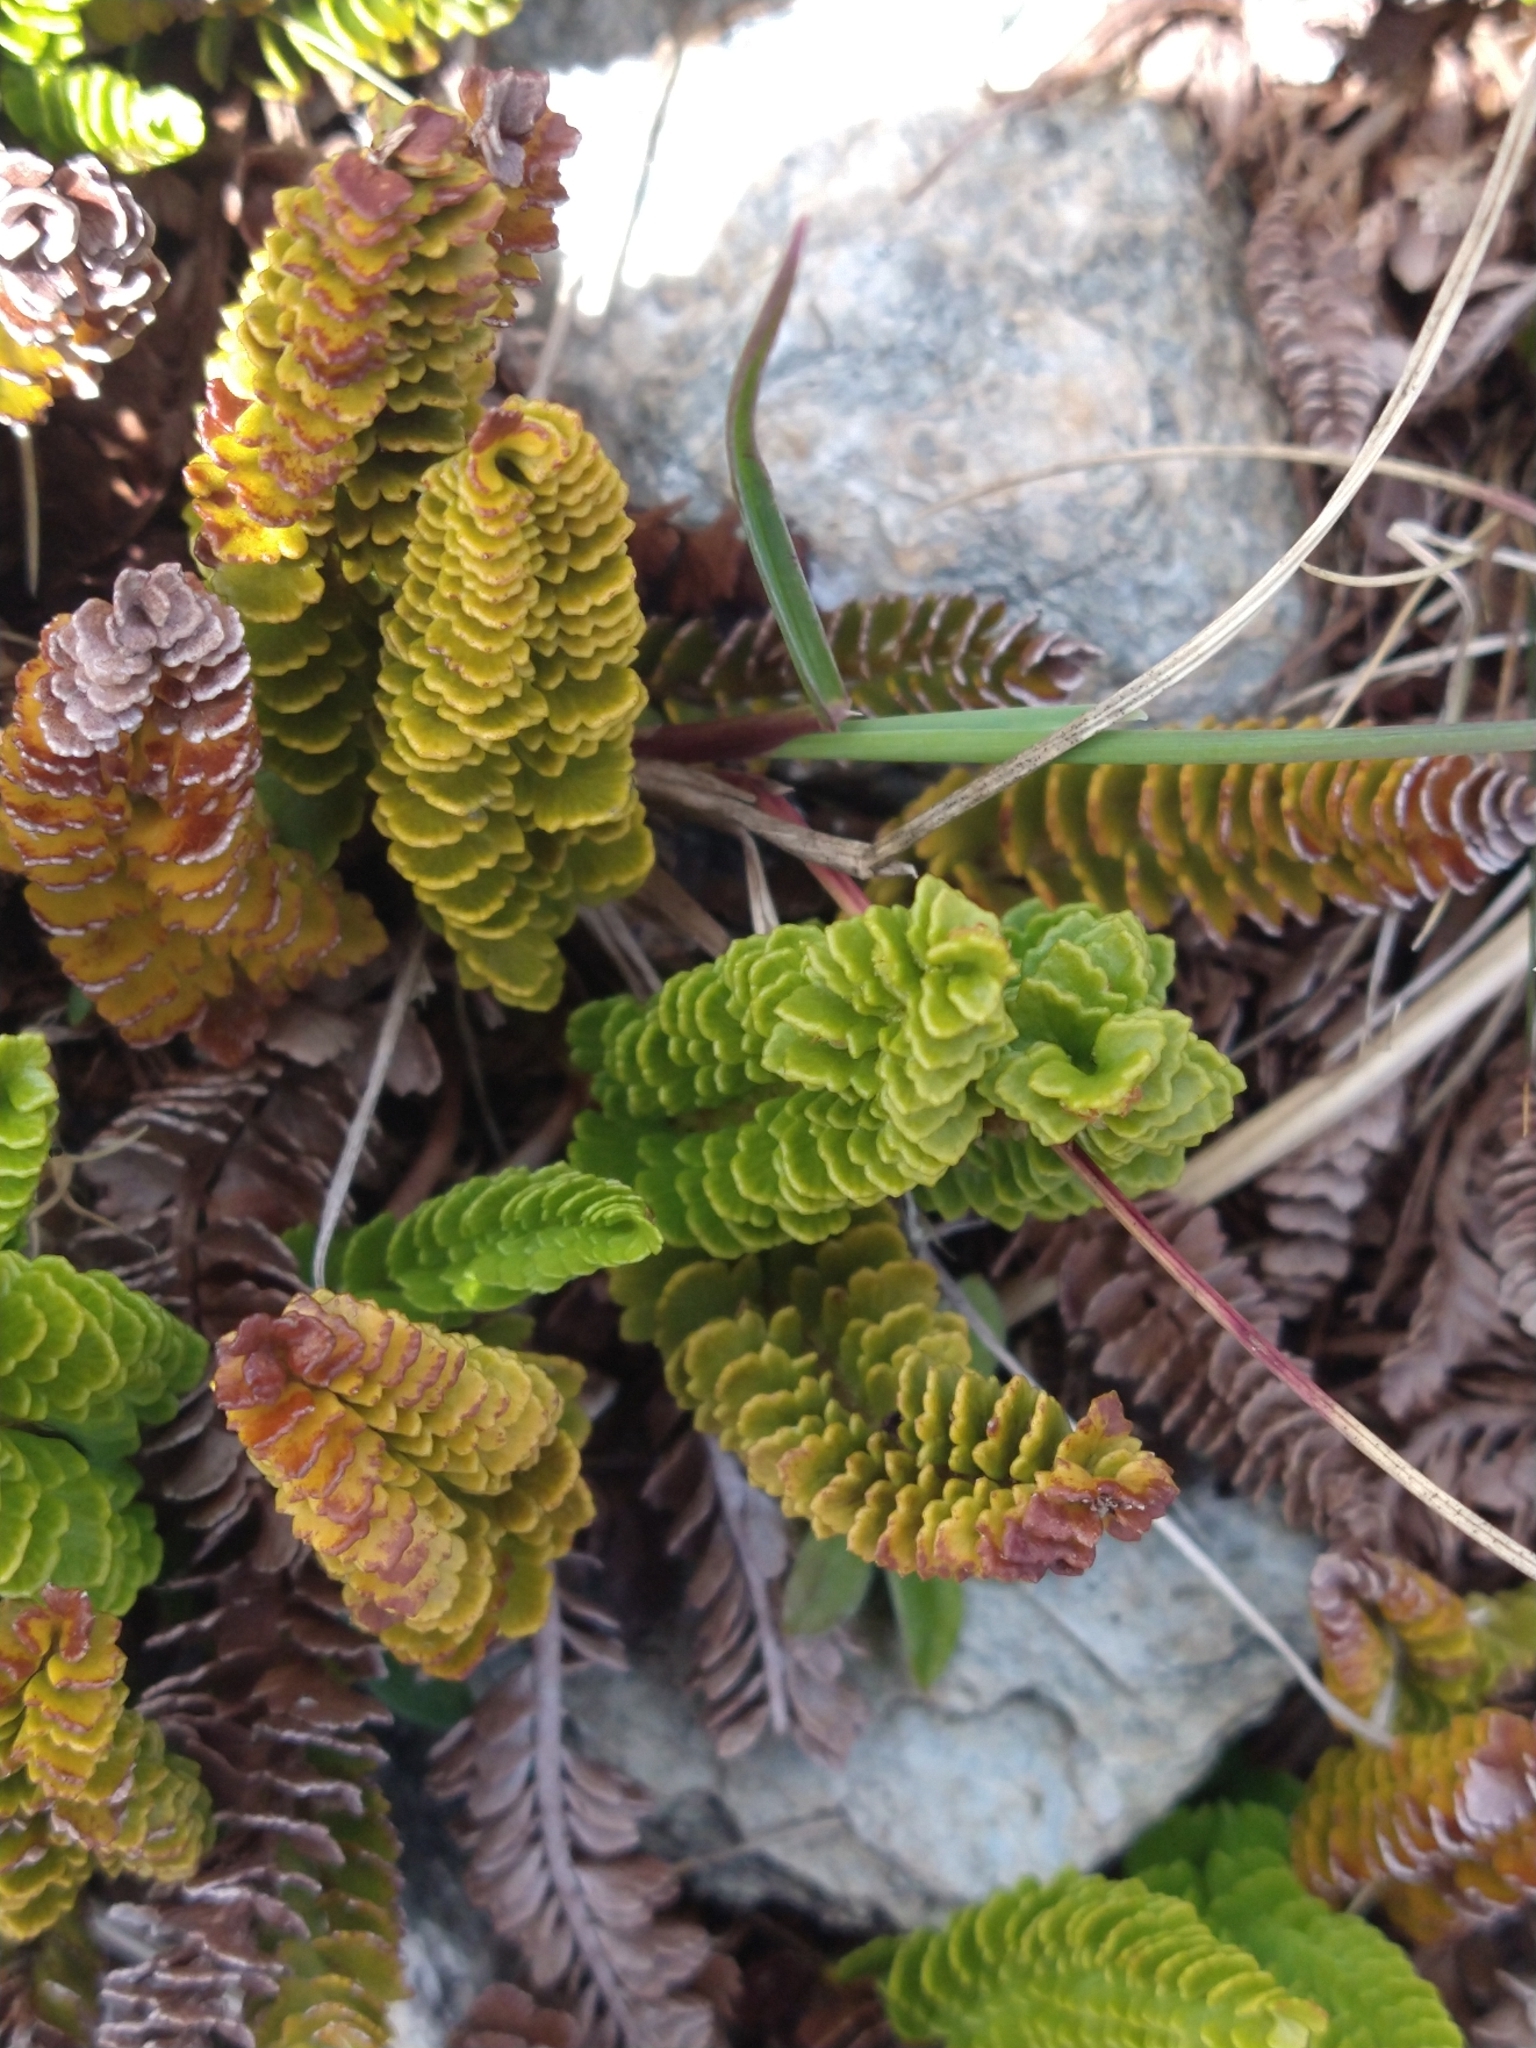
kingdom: Plantae
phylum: Tracheophyta
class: Polypodiopsida
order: Polypodiales
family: Dryopteridaceae
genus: Polystichum
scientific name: Polystichum andinum
